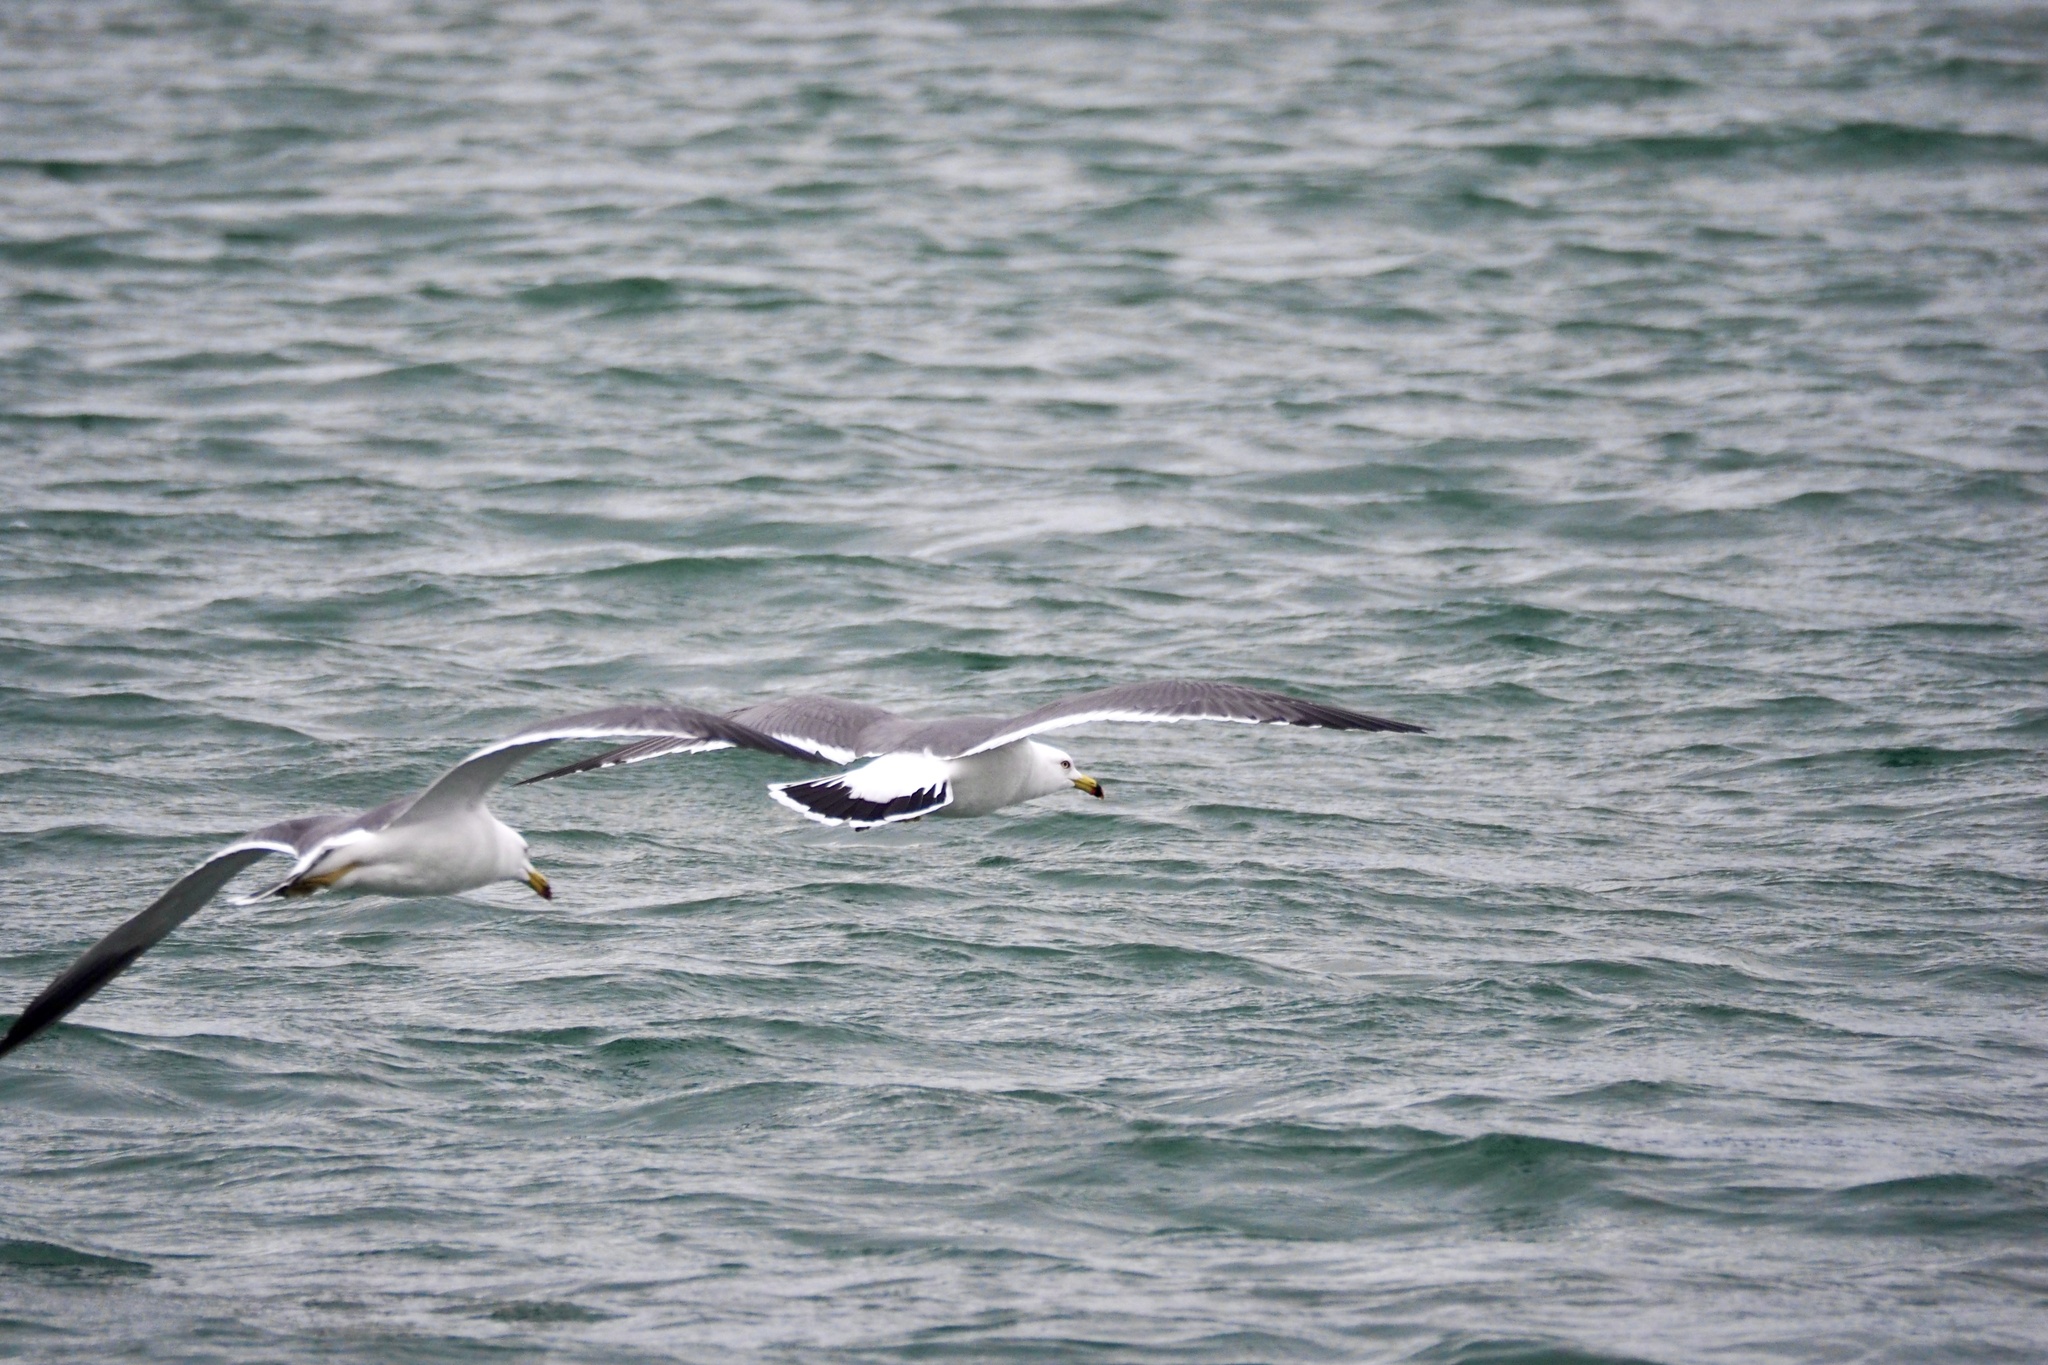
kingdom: Animalia
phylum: Chordata
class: Aves
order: Charadriiformes
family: Laridae
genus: Larus
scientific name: Larus crassirostris
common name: Black-tailed gull
